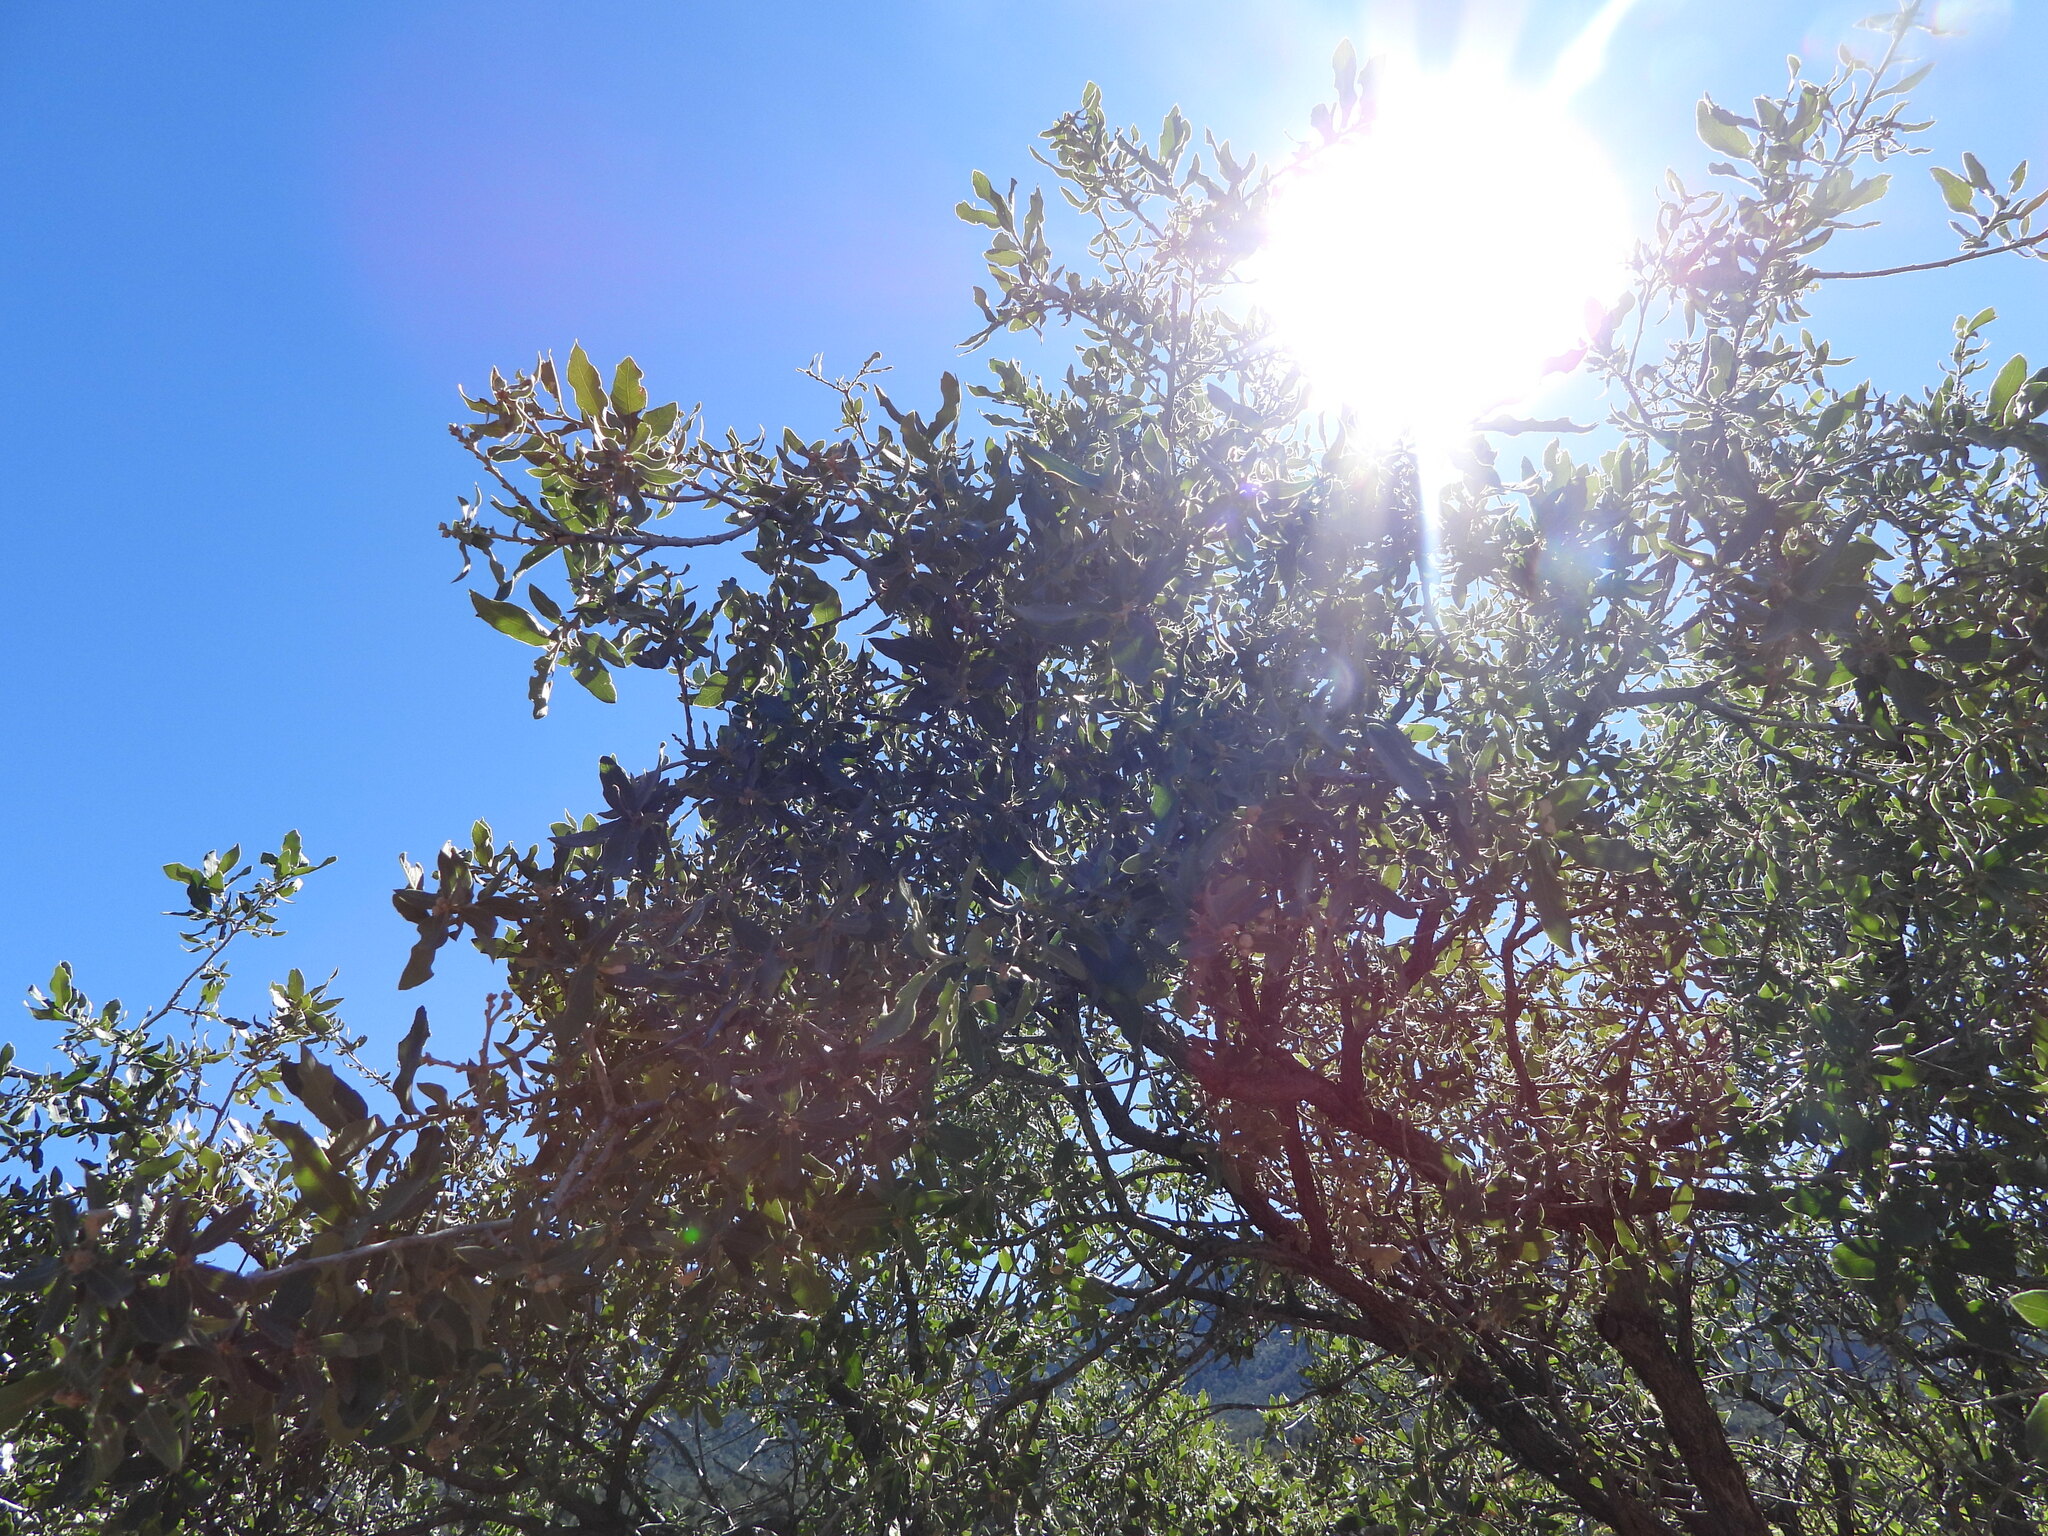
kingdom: Plantae
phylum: Tracheophyta
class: Magnoliopsida
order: Fagales
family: Fagaceae
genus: Quercus
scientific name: Quercus grisea
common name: Gray oak
